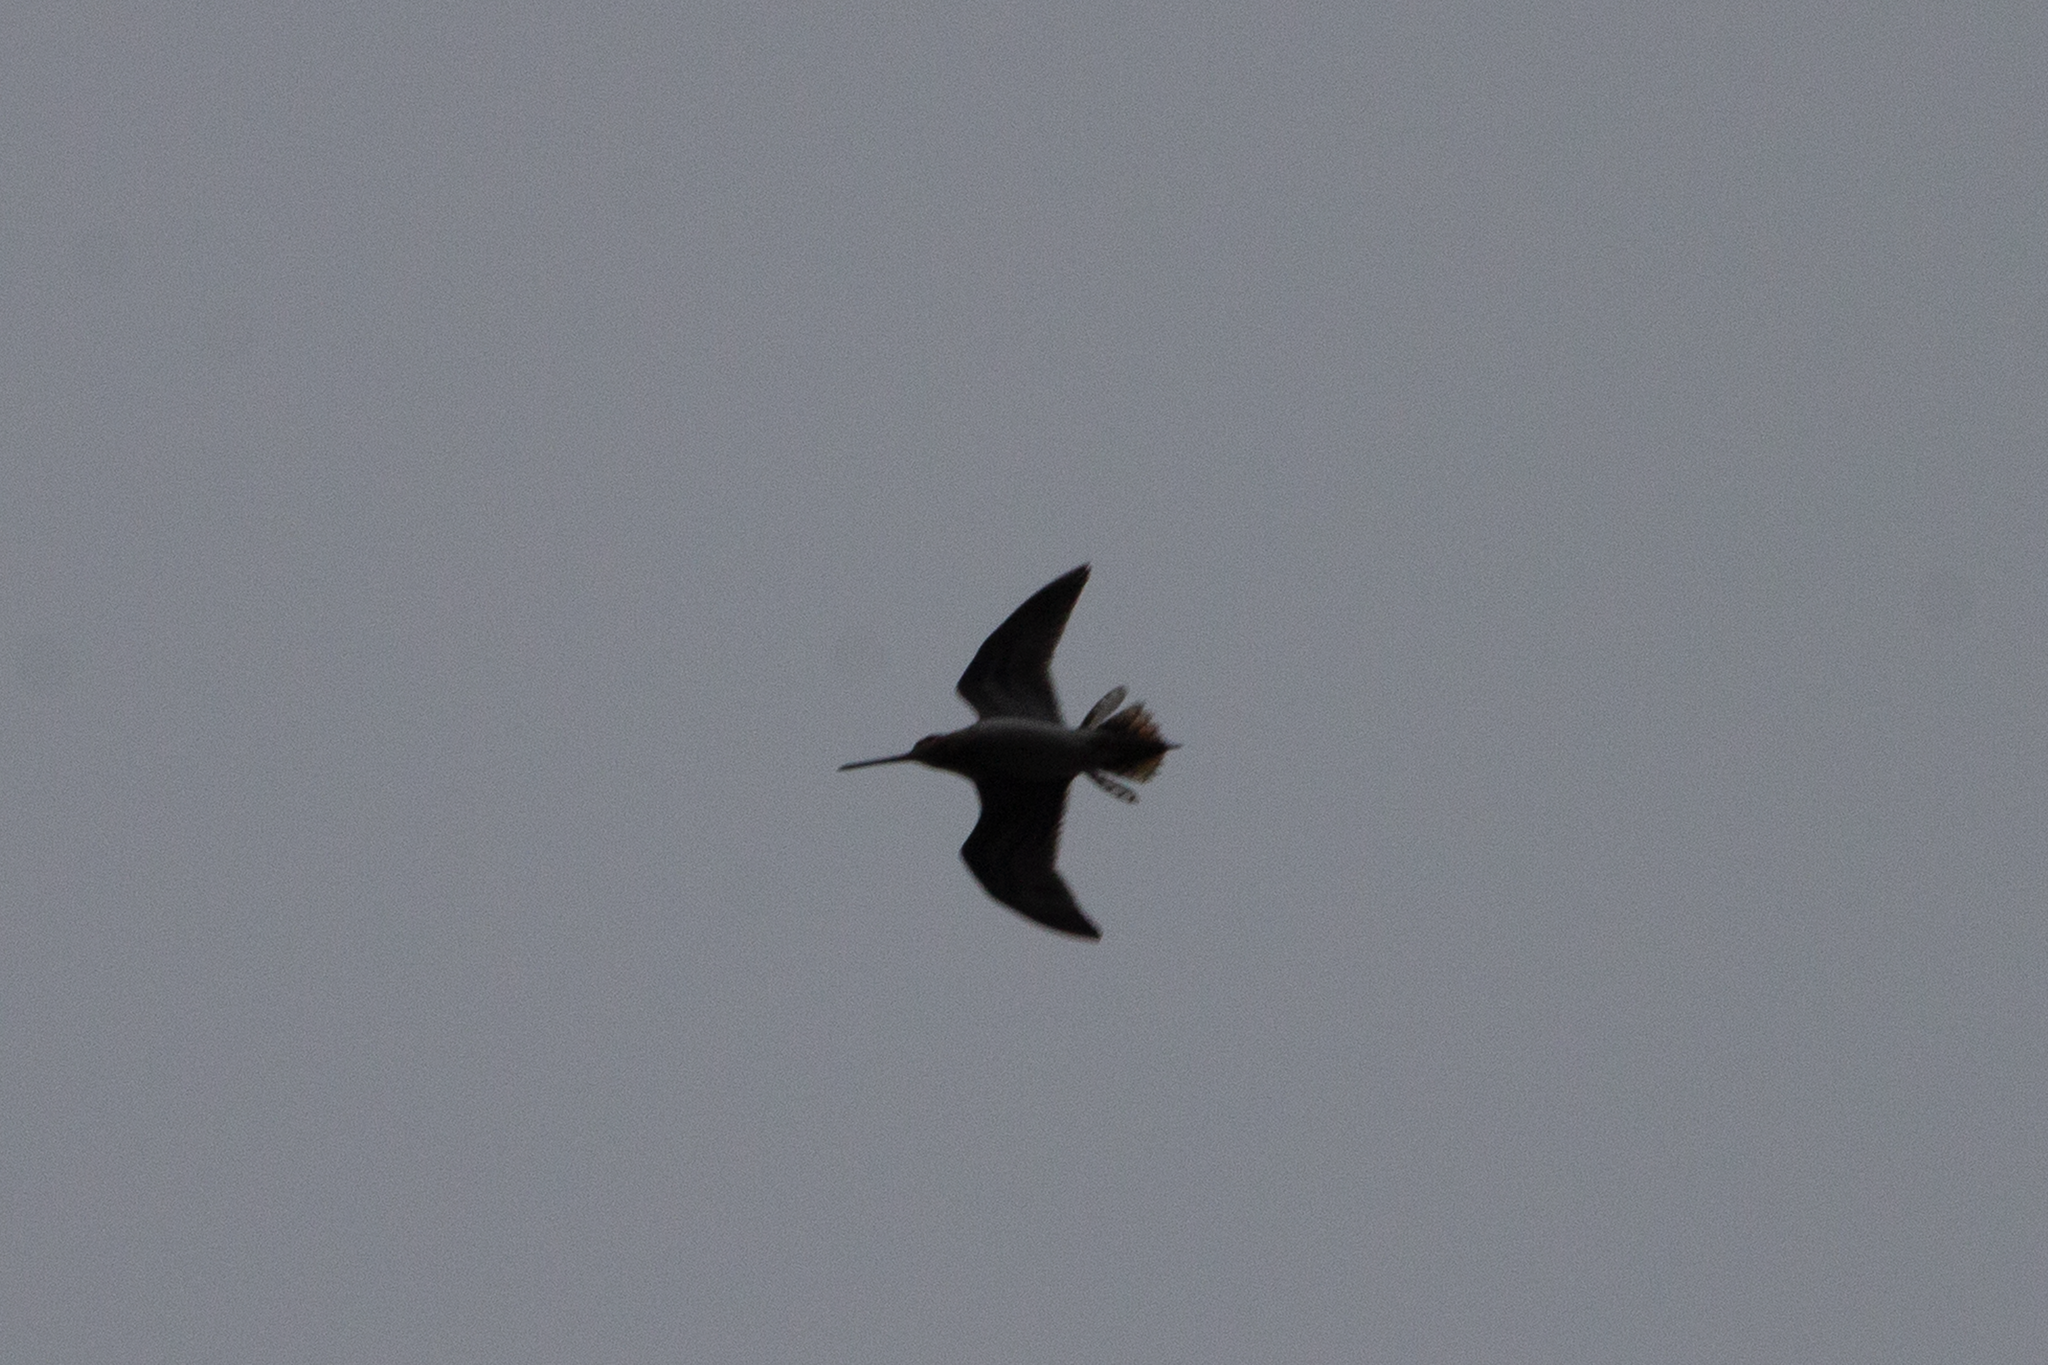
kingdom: Animalia
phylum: Chordata
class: Aves
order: Charadriiformes
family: Scolopacidae
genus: Gallinago
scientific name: Gallinago gallinago
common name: Common snipe
